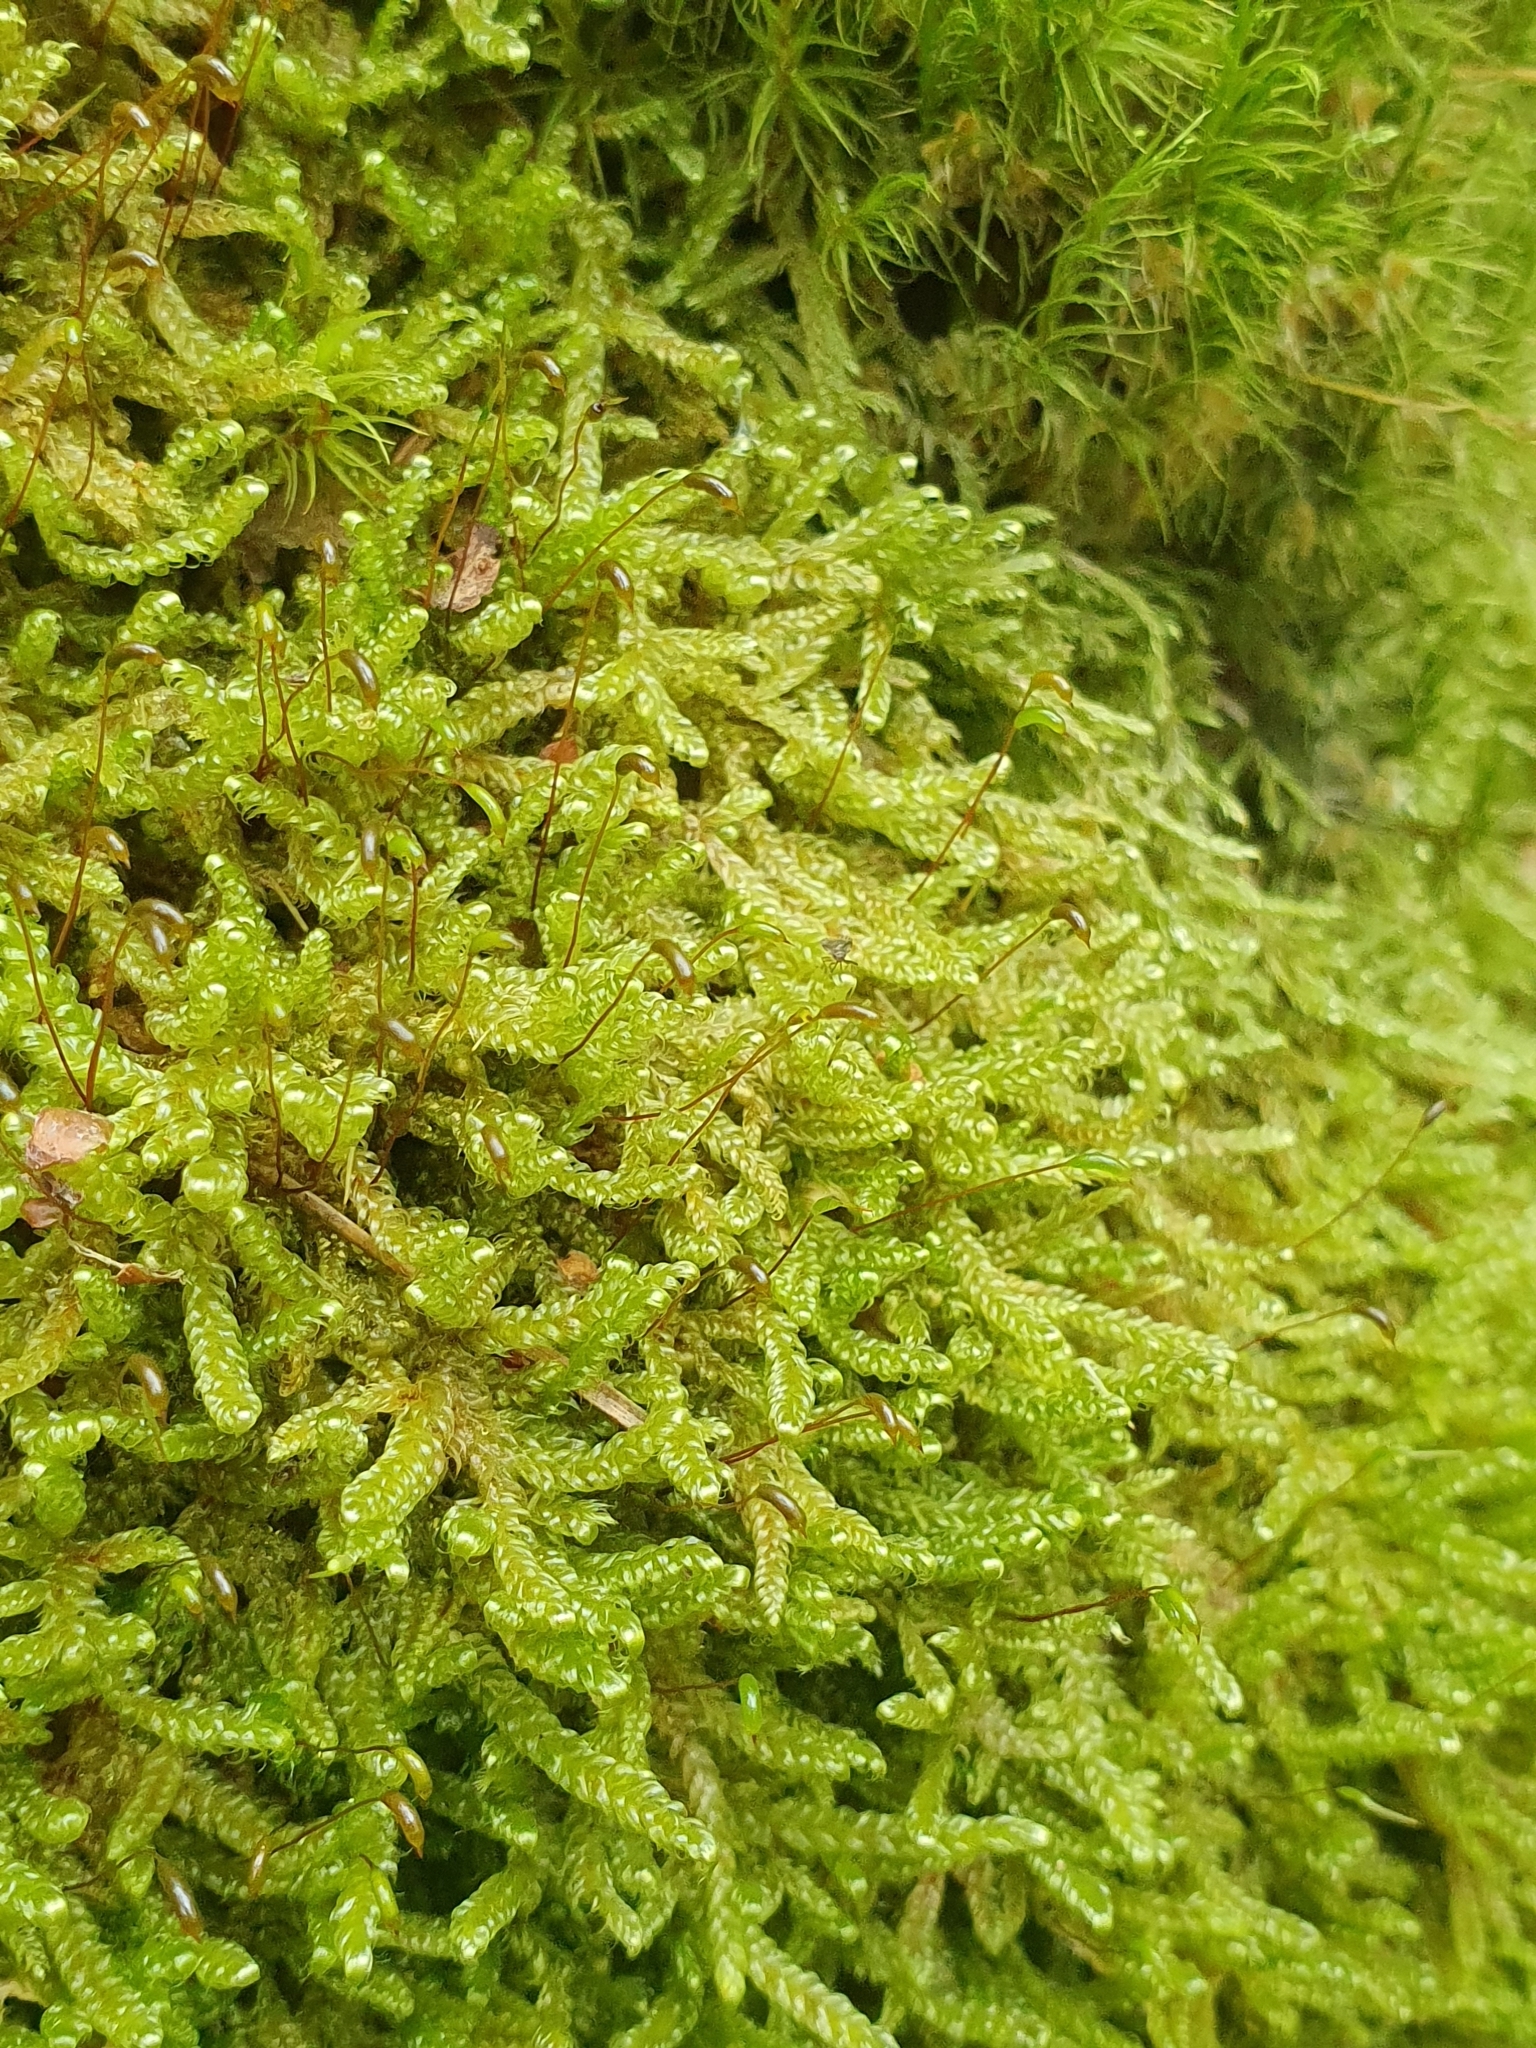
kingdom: Plantae
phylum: Bryophyta
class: Bryopsida
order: Hypnales
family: Hypnaceae
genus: Hypnum
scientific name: Hypnum cupressiforme
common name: Cypress-leaved plait-moss
